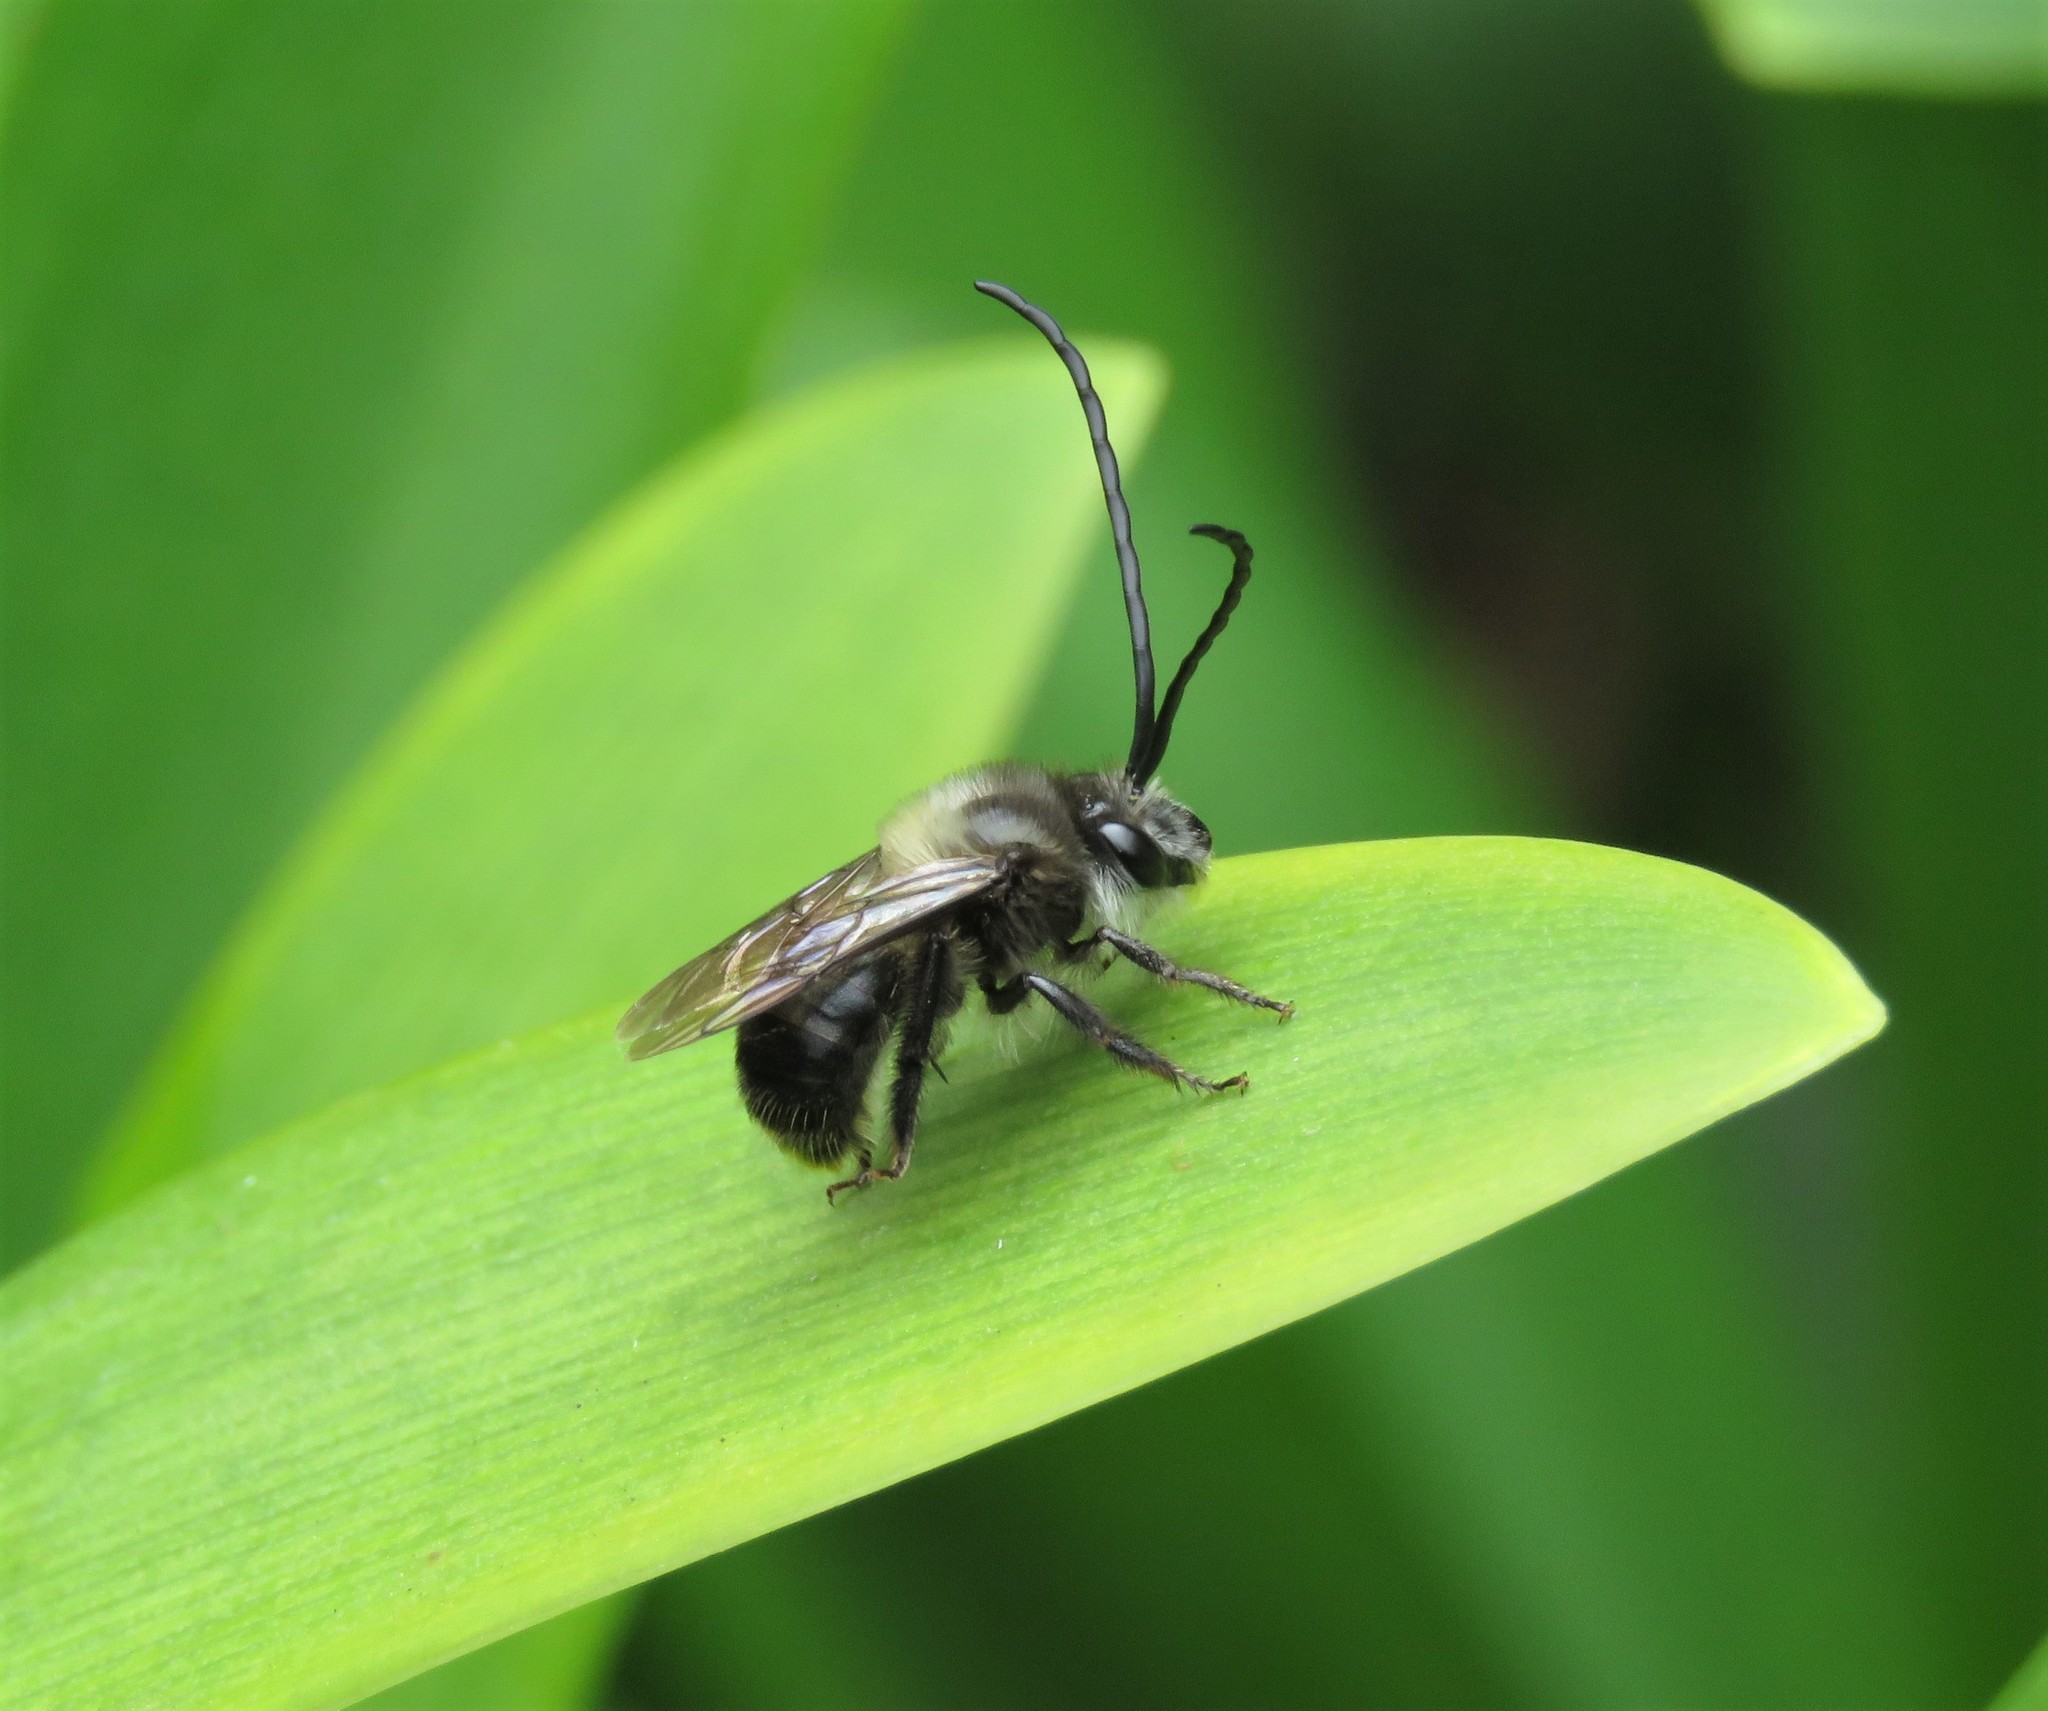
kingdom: Animalia
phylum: Arthropoda
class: Insecta
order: Hymenoptera
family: Apidae
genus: Thygater
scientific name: Thygater aethiops
